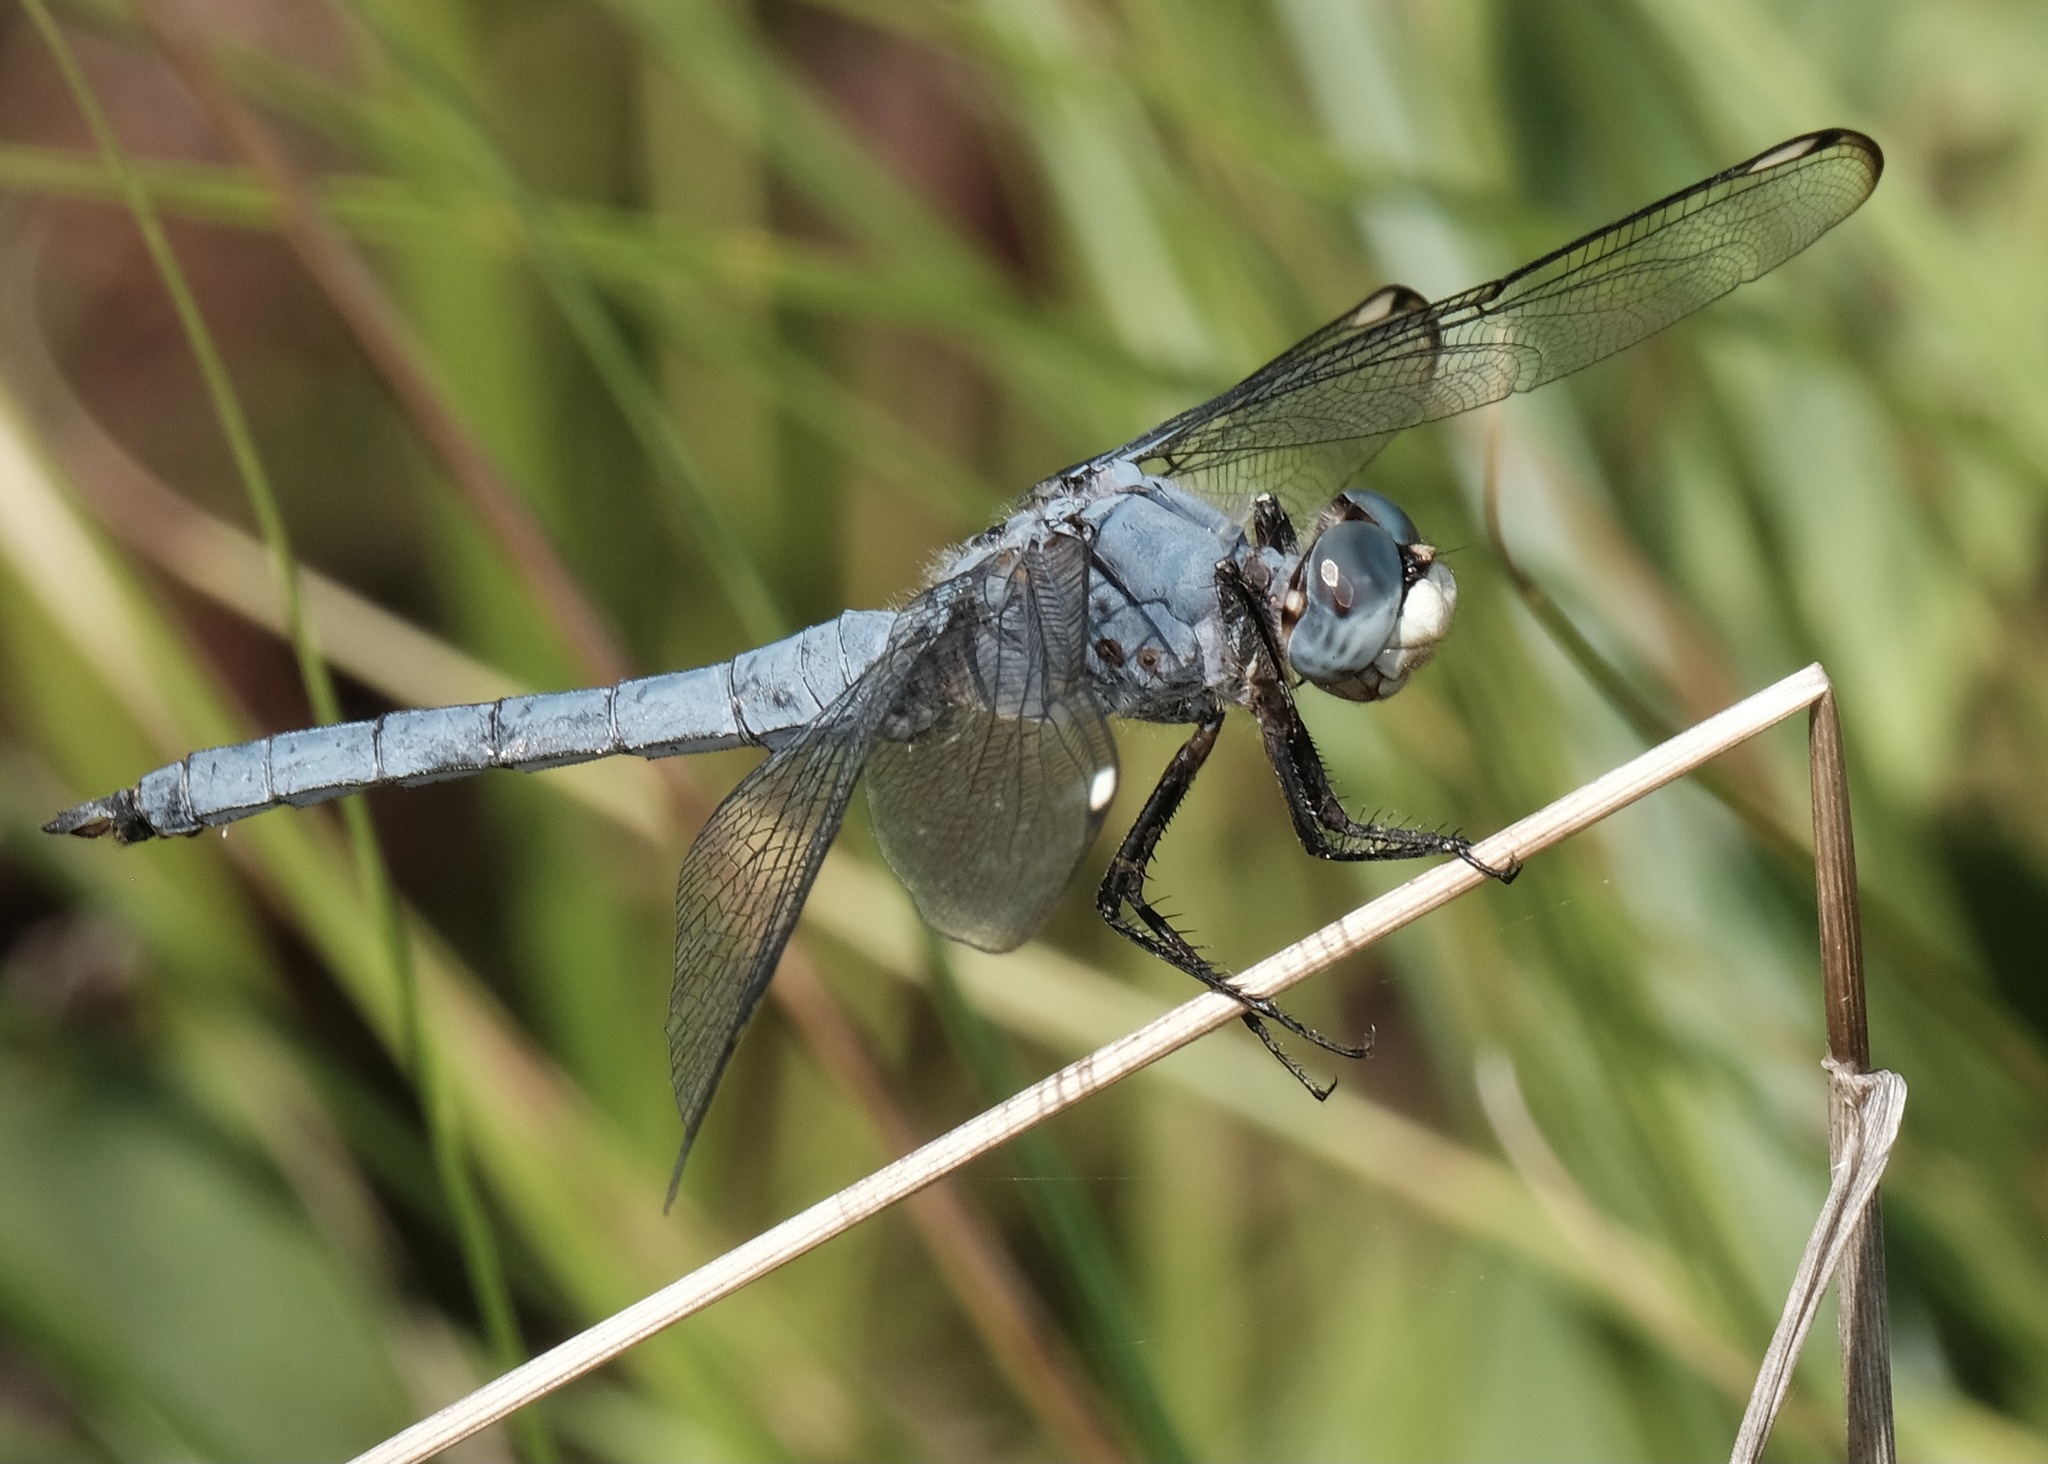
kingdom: Animalia
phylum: Arthropoda
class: Insecta
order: Odonata
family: Libellulidae
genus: Libellula
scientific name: Libellula comanche
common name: Comanche skimmer
